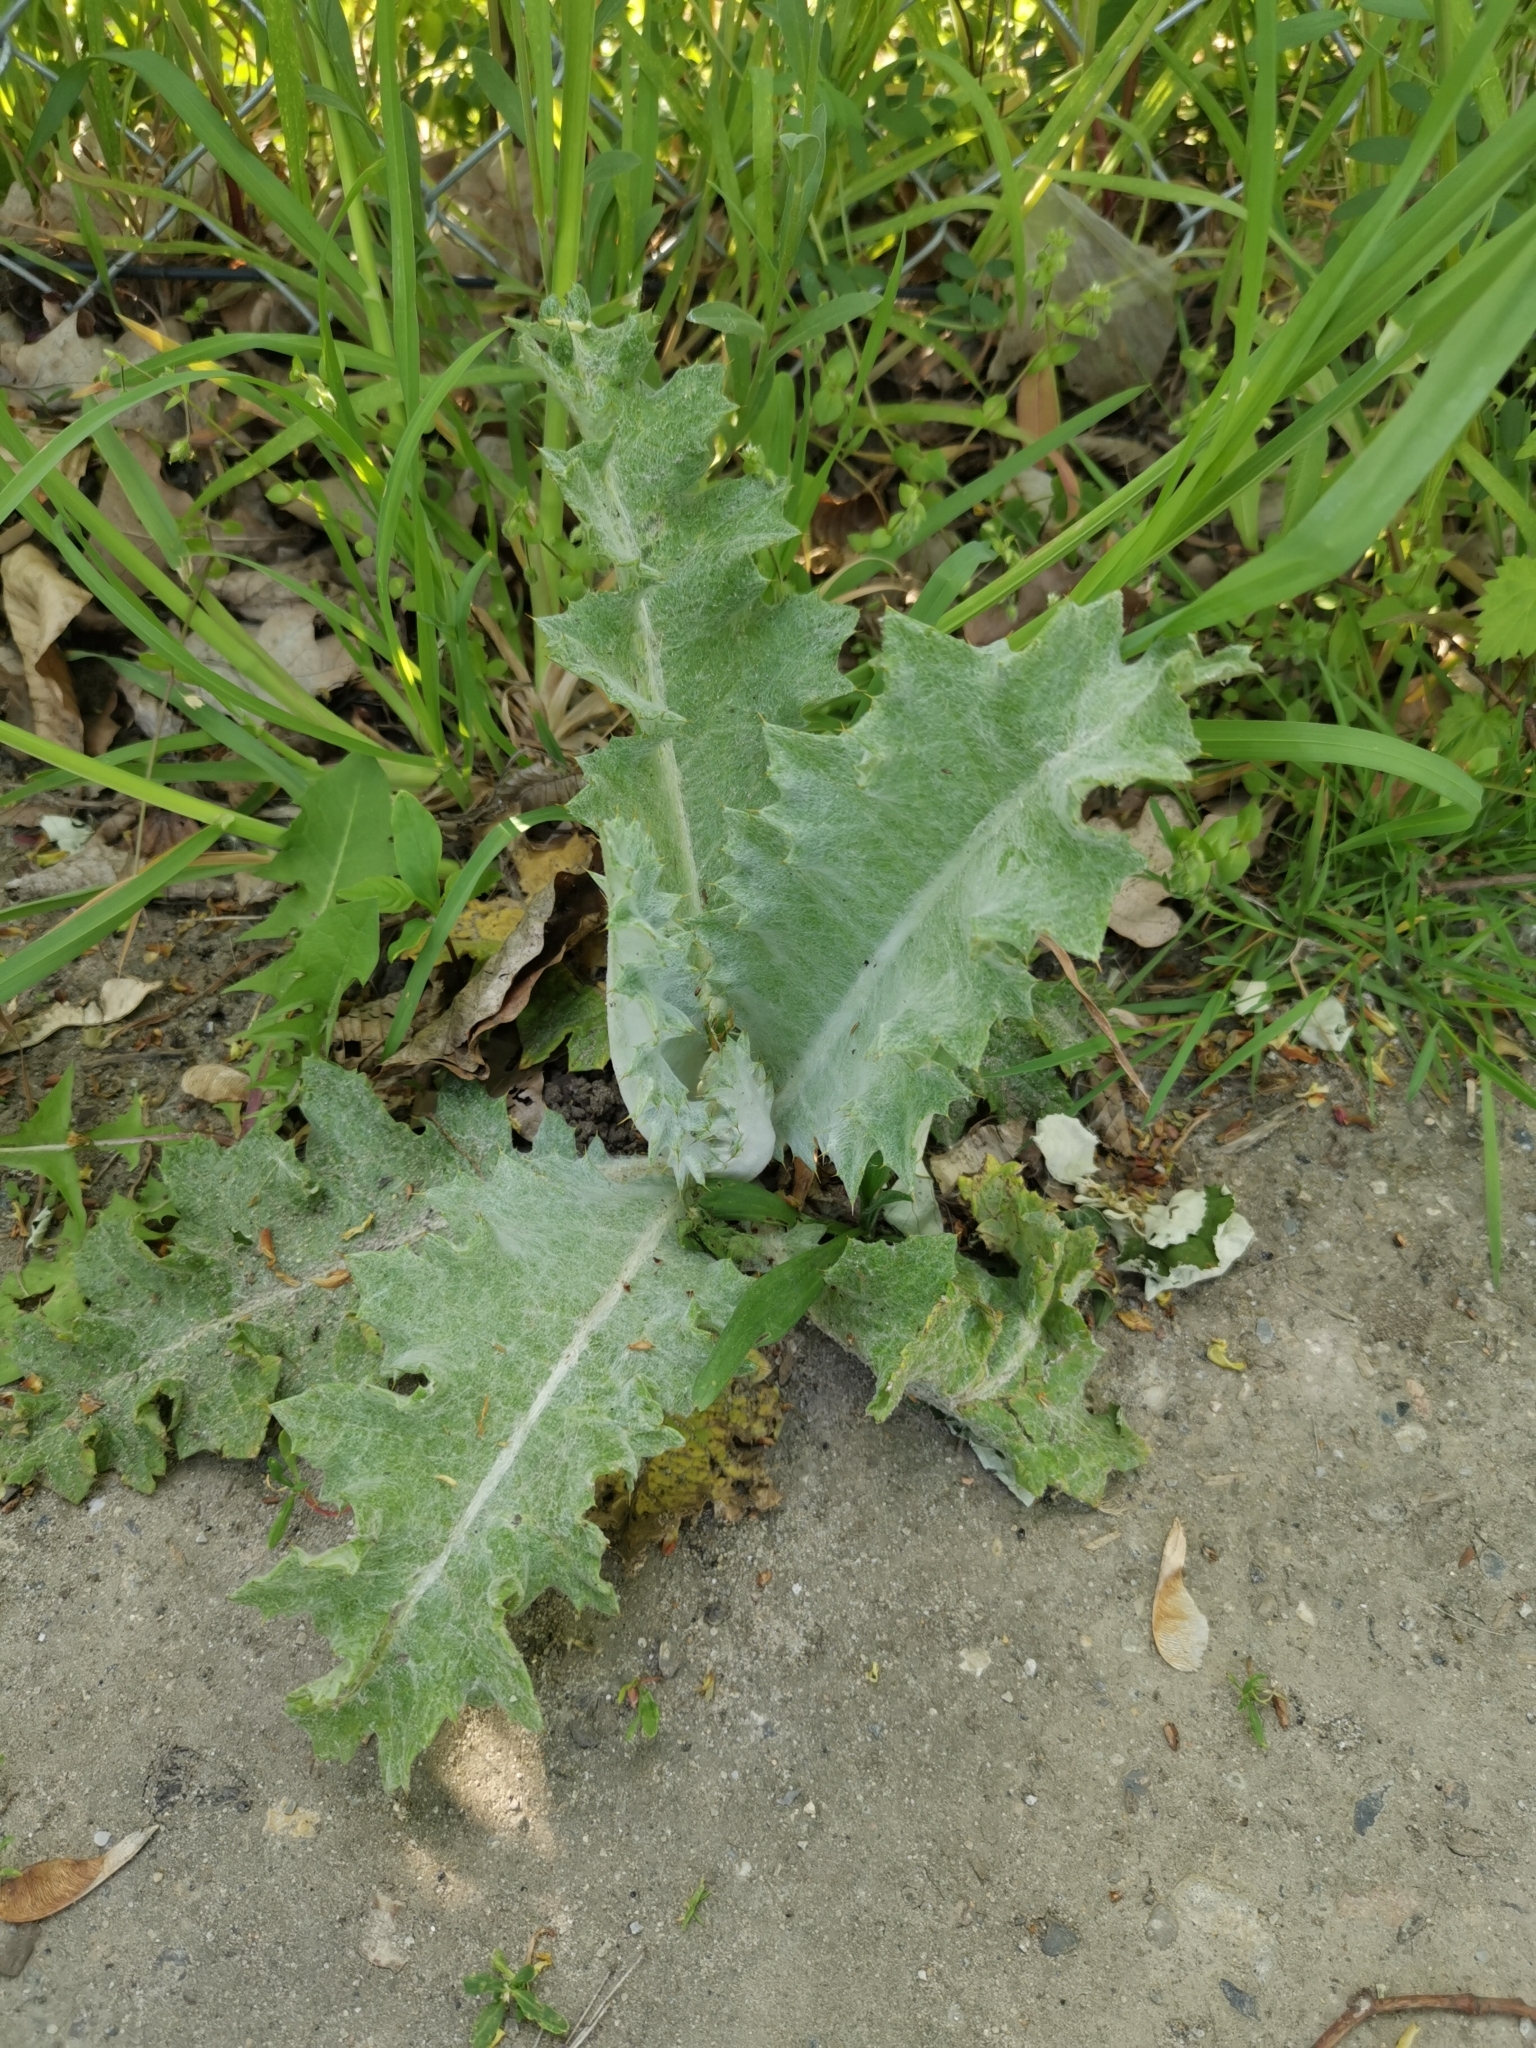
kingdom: Plantae
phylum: Tracheophyta
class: Magnoliopsida
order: Asterales
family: Asteraceae
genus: Onopordum
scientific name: Onopordum acanthium
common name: Scotch thistle
